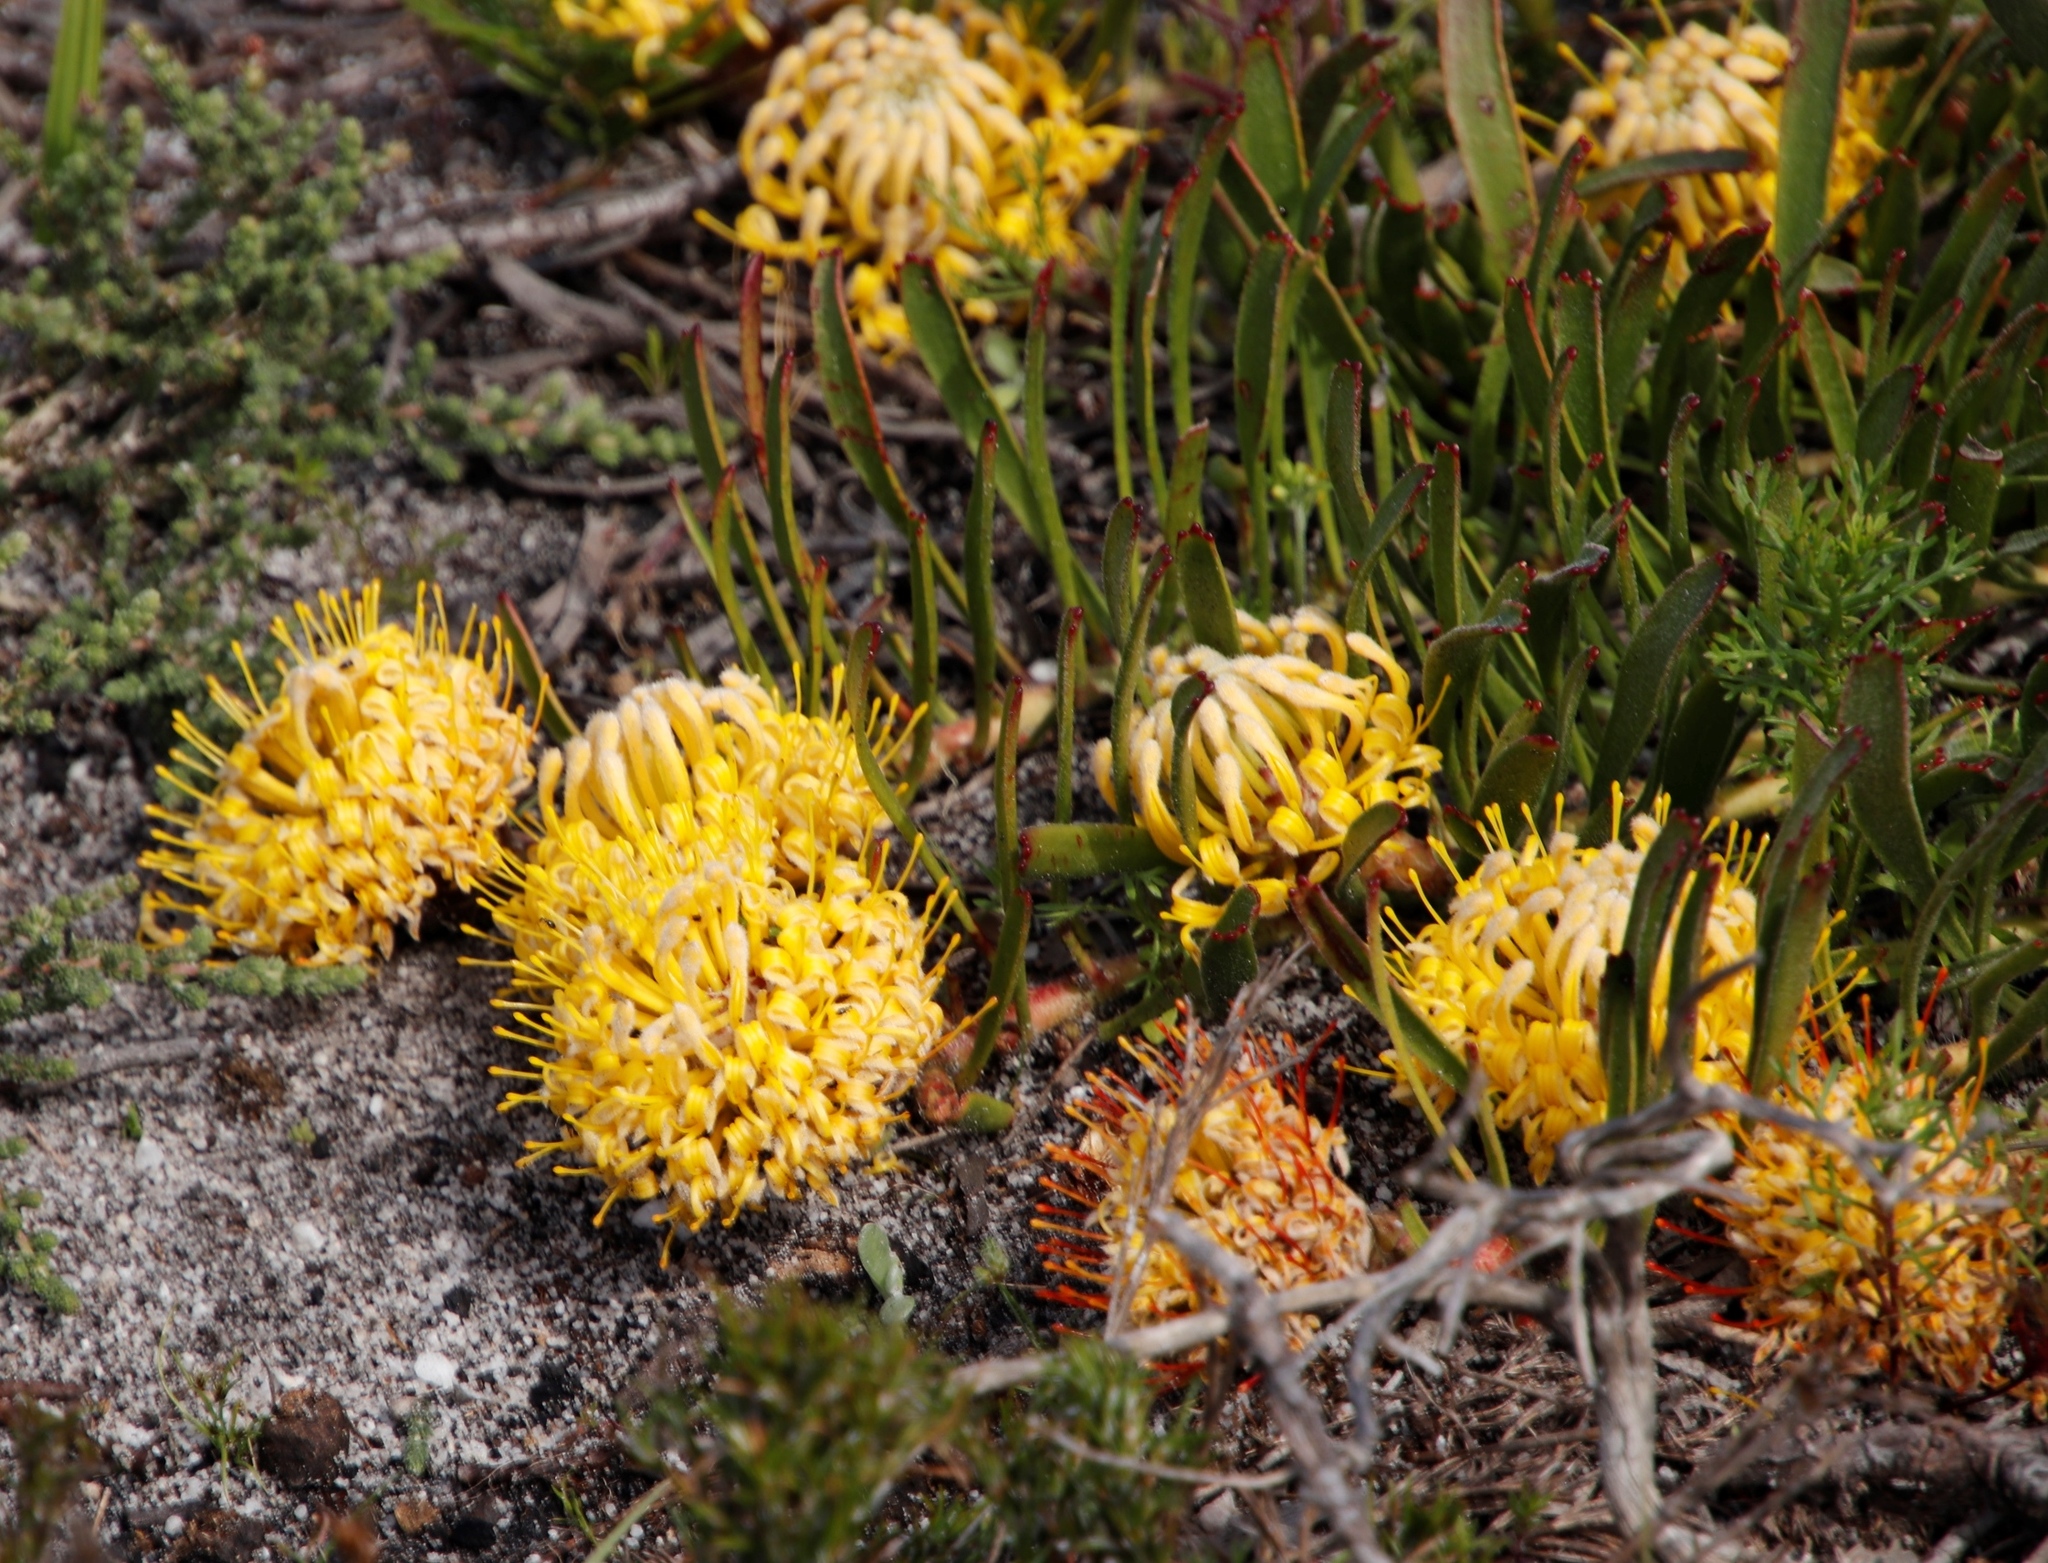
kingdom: Plantae
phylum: Tracheophyta
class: Magnoliopsida
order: Proteales
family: Proteaceae
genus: Leucospermum
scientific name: Leucospermum hypophyllocarpodendron
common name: Snakestem pincushion
